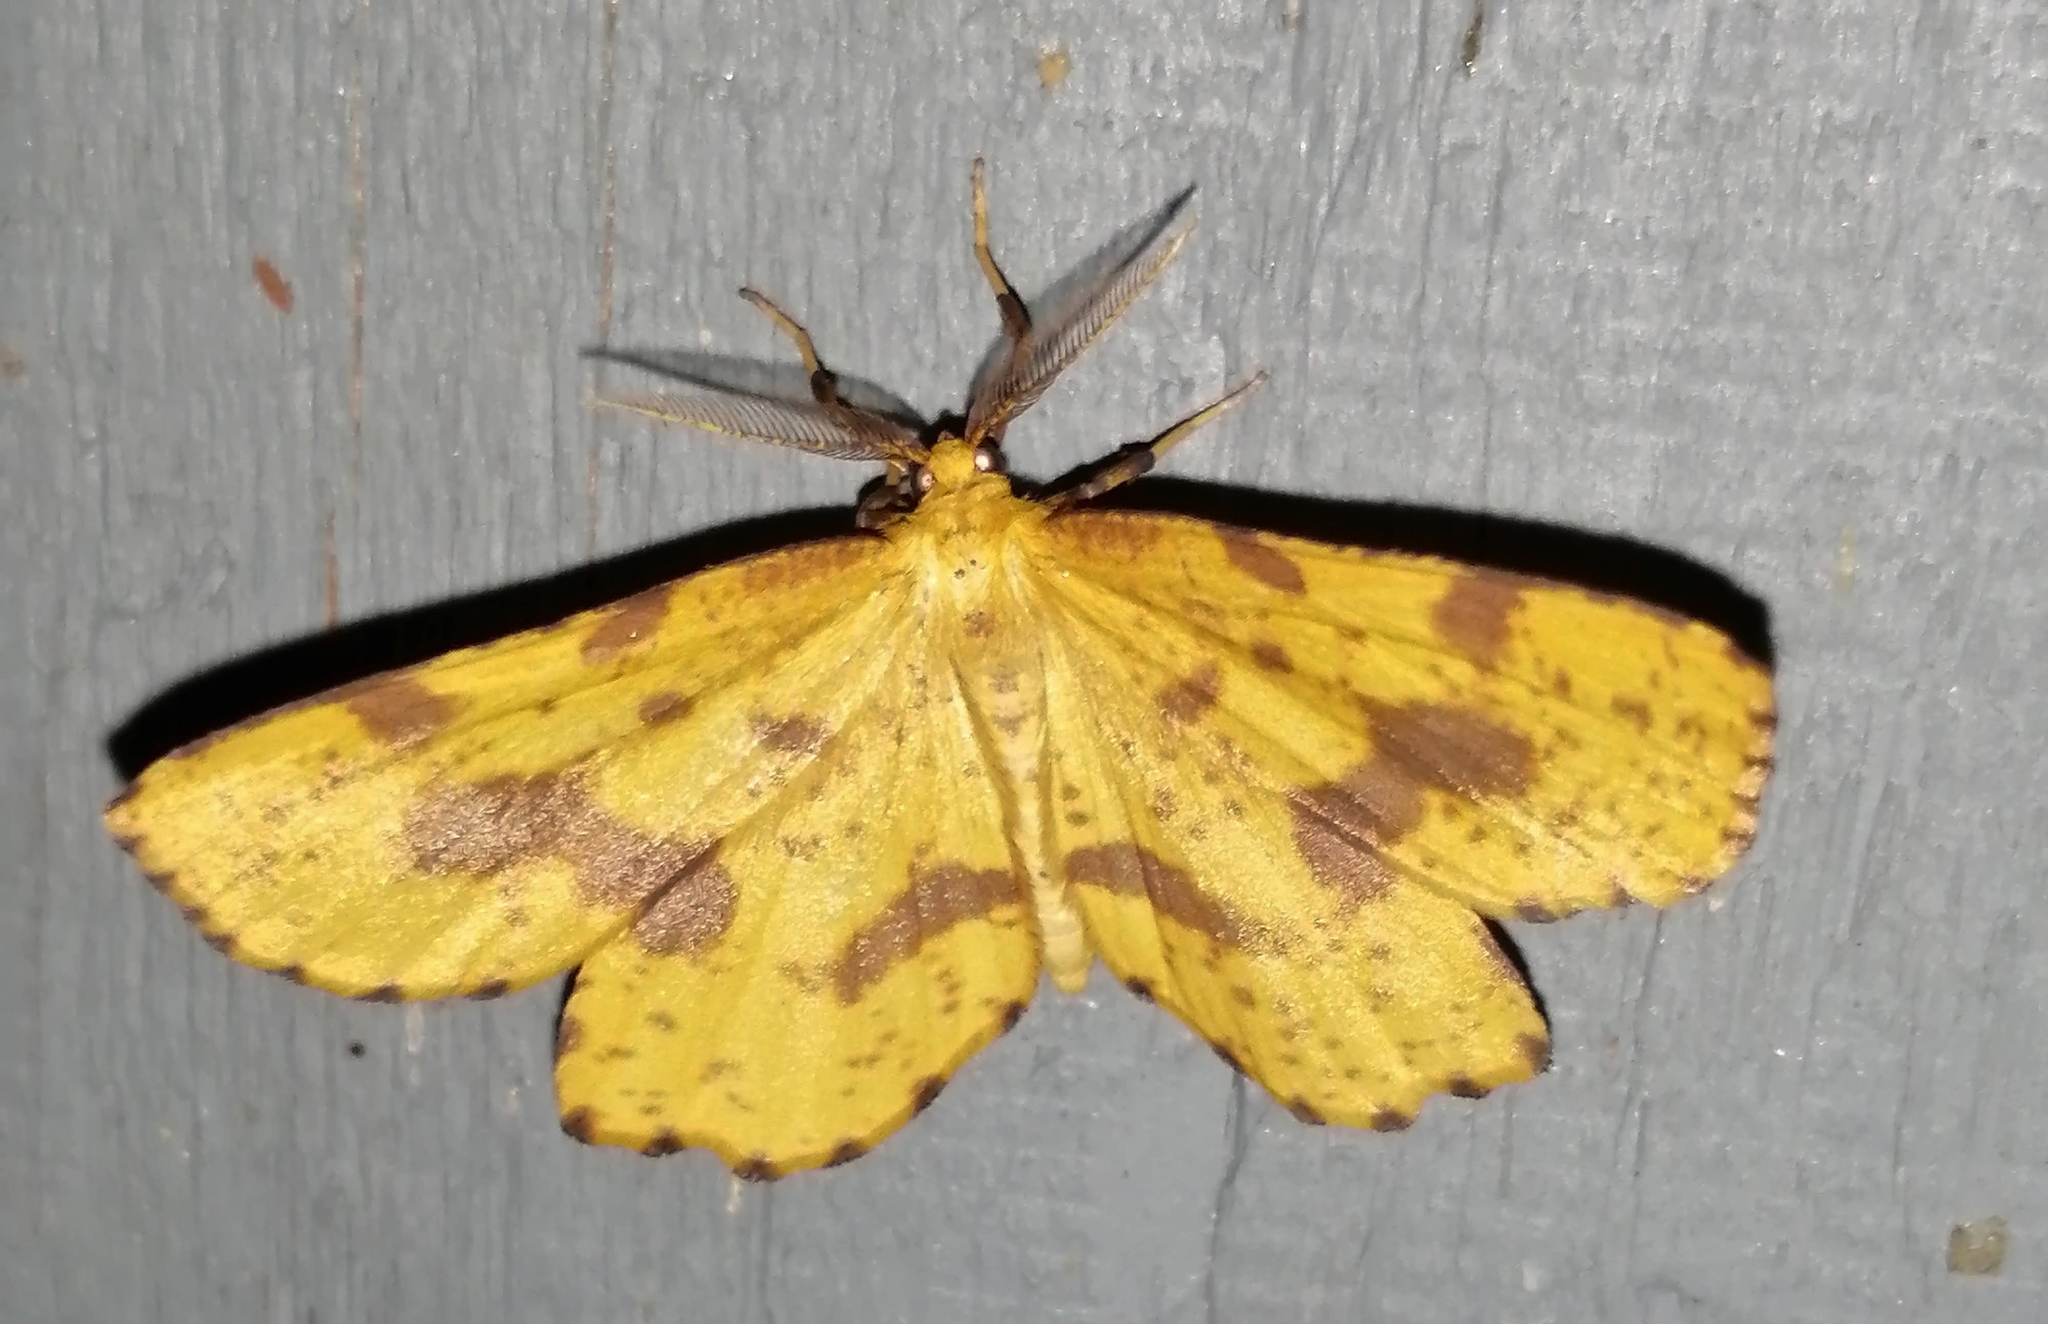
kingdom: Animalia
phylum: Arthropoda
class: Insecta
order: Lepidoptera
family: Geometridae
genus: Xanthotype
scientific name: Xanthotype
